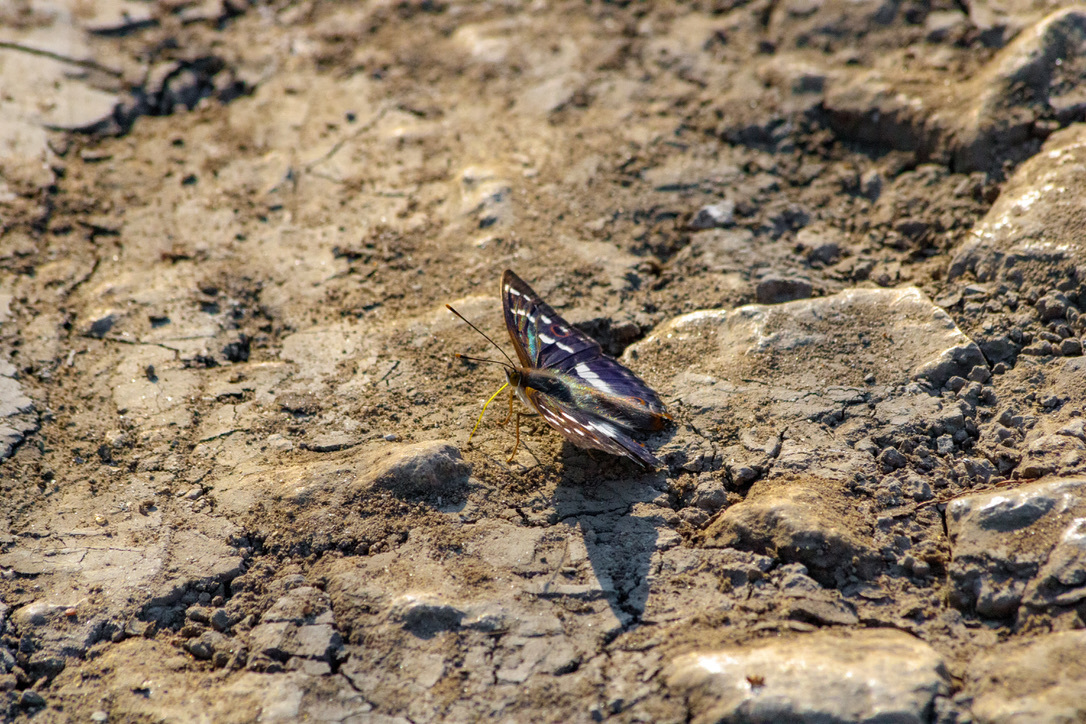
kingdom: Animalia
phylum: Arthropoda
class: Insecta
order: Lepidoptera
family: Nymphalidae
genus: Apatura
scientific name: Apatura ilia
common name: Lesser purple emperor
